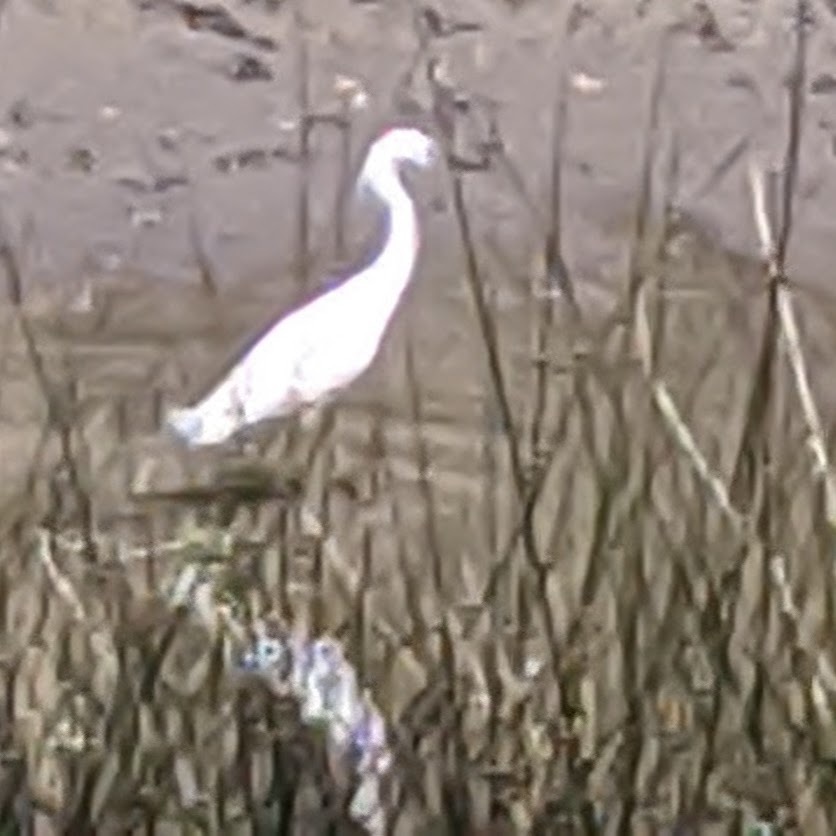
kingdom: Animalia
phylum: Chordata
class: Aves
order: Pelecaniformes
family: Ardeidae
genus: Egretta
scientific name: Egretta thula
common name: Snowy egret
